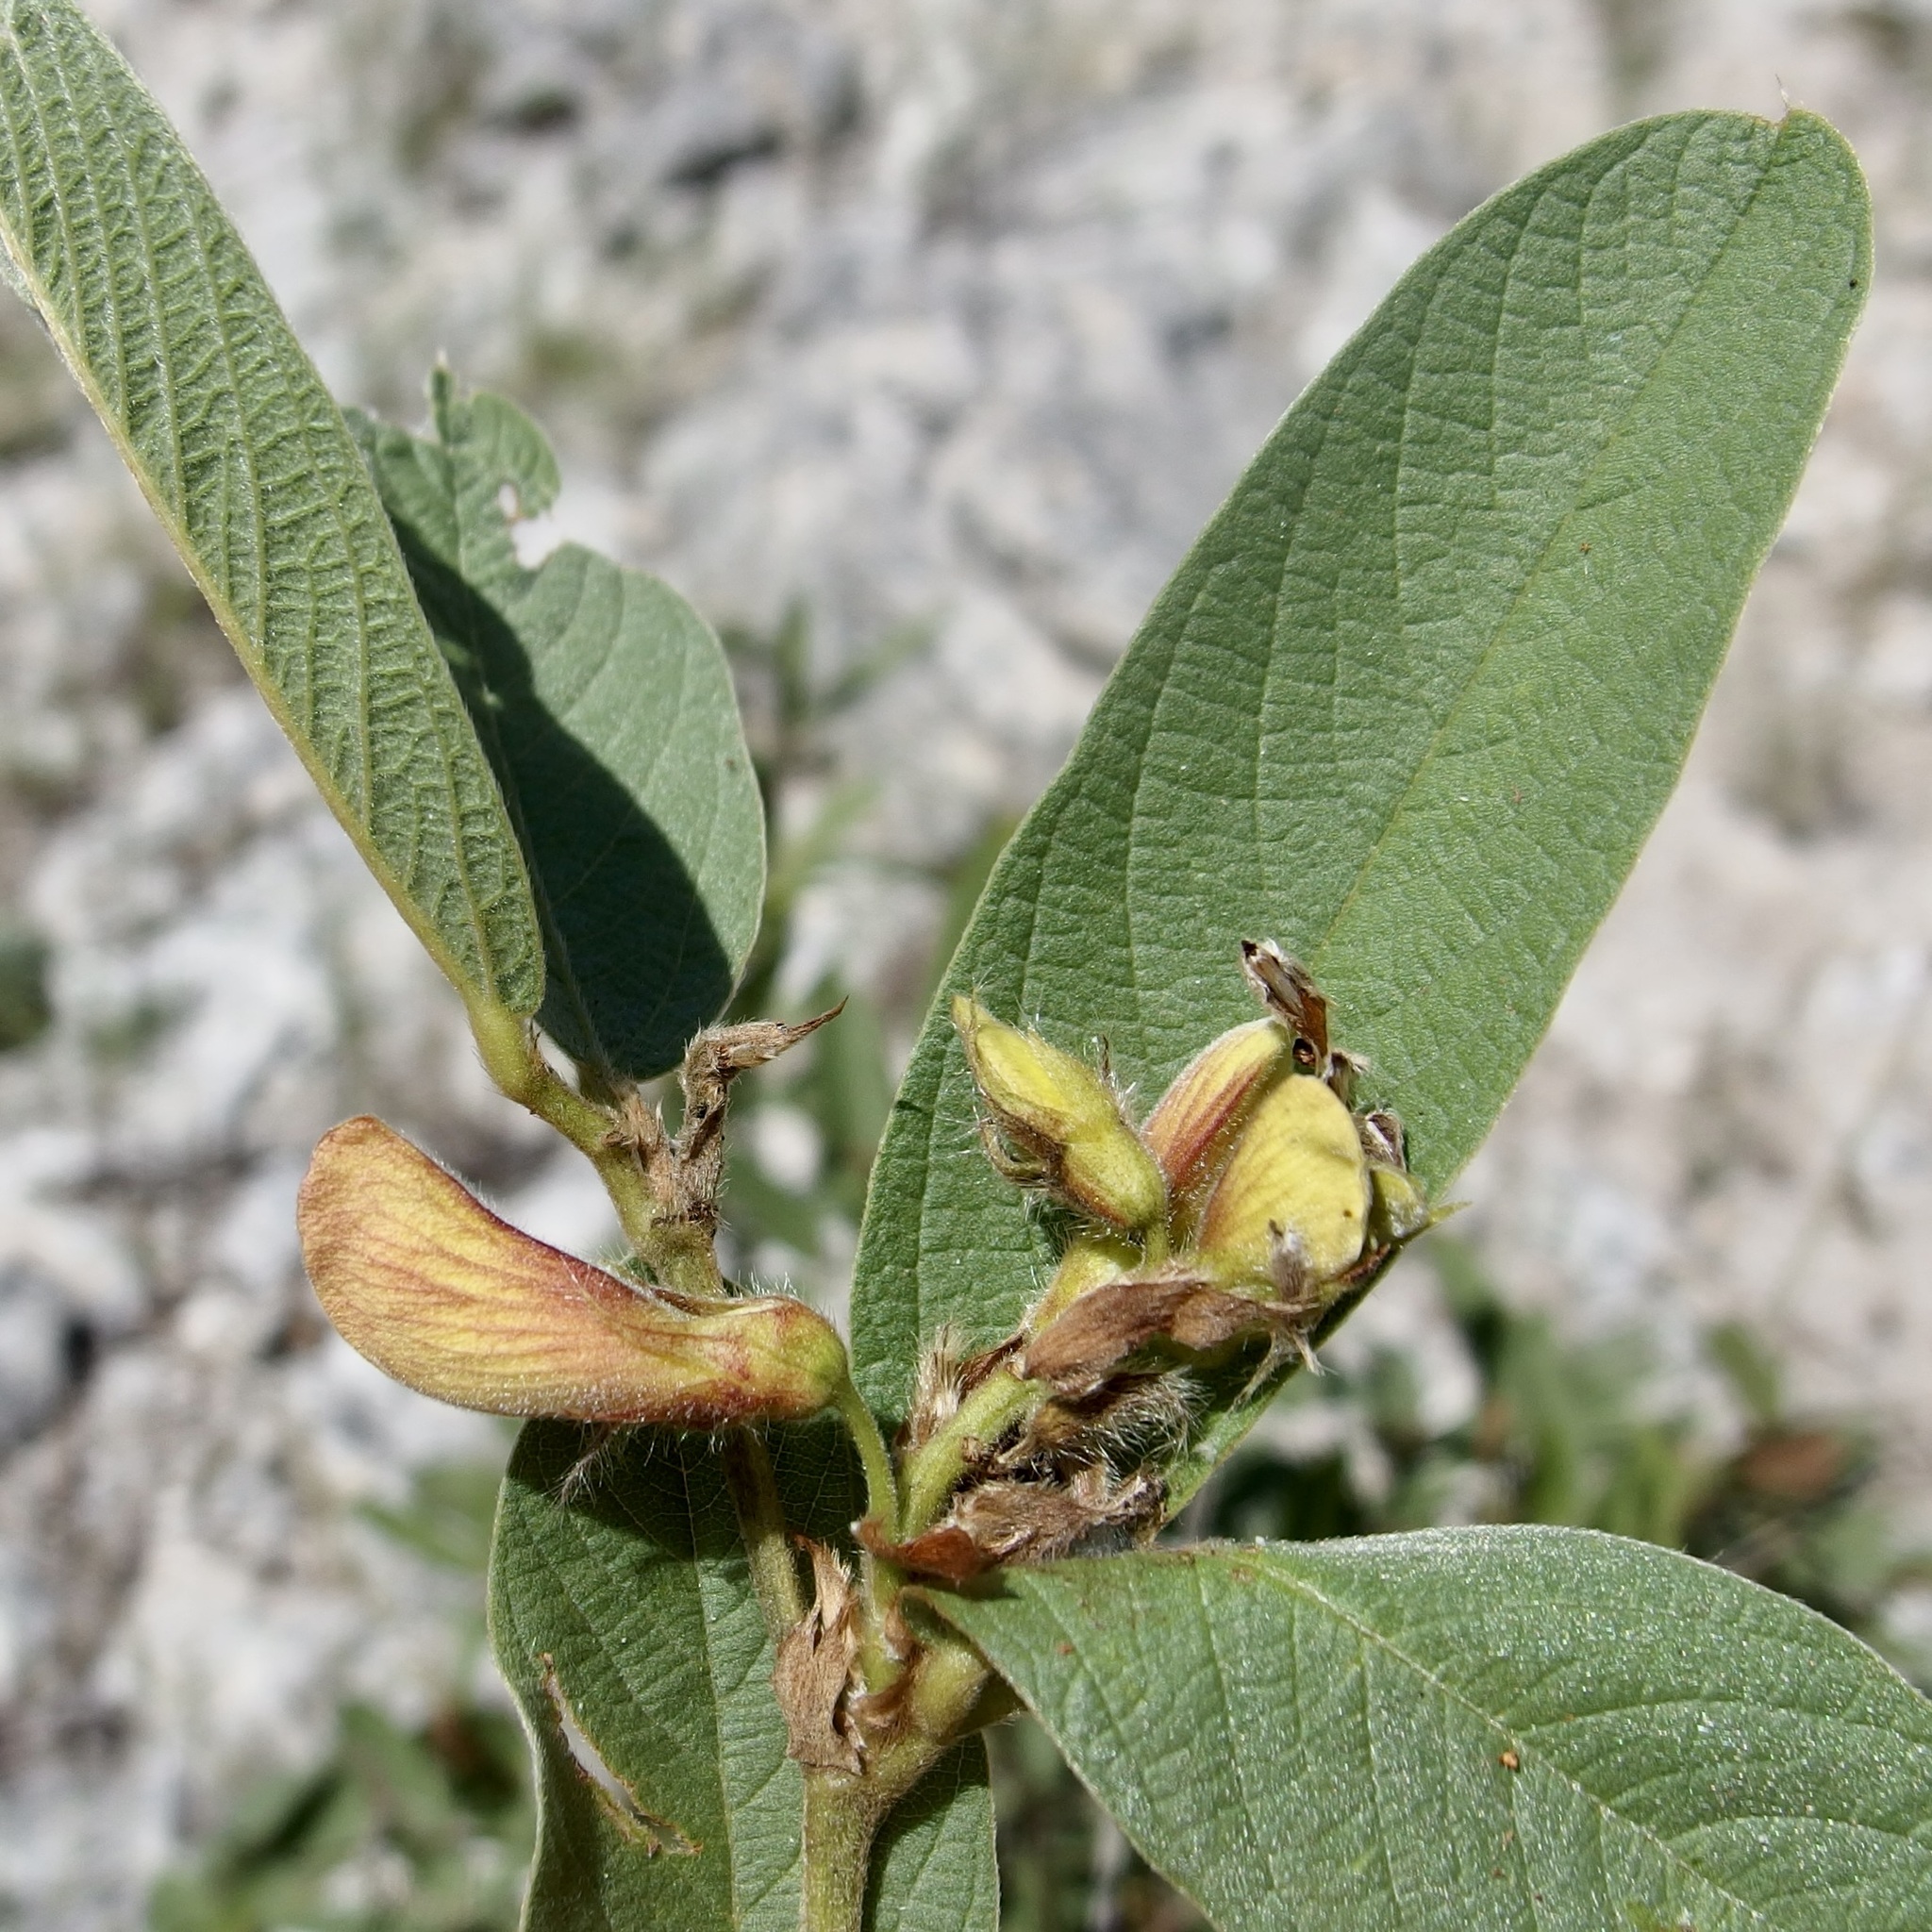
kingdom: Plantae
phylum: Tracheophyta
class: Magnoliopsida
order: Fabales
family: Fabaceae
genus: Eriosema
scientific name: Eriosema grandiflorum
